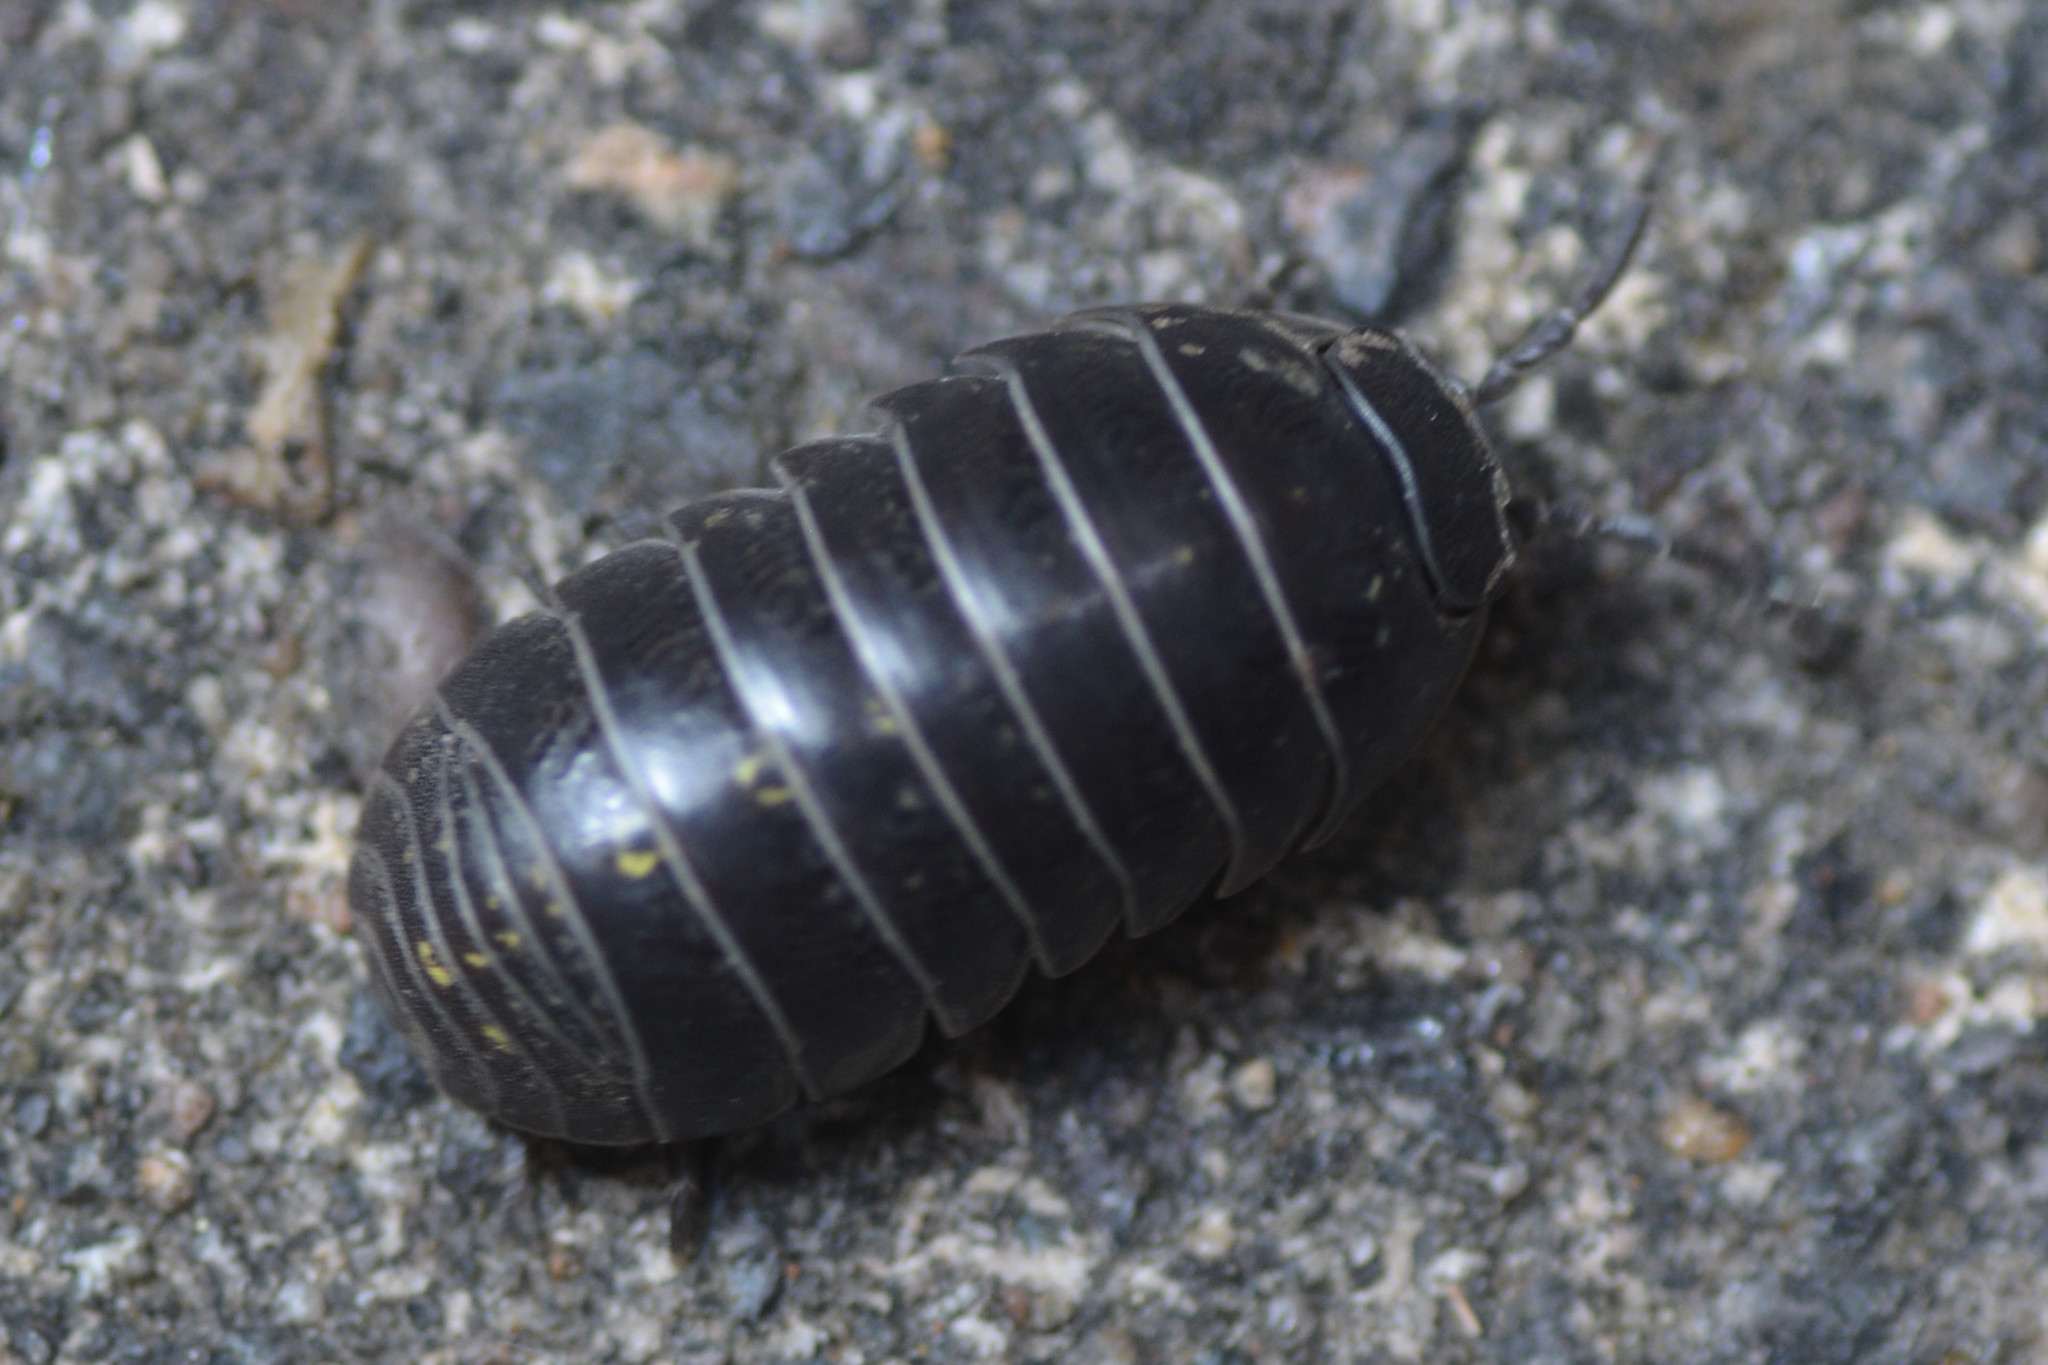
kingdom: Animalia
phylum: Arthropoda
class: Malacostraca
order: Isopoda
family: Armadillidiidae
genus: Armadillidium
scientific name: Armadillidium vulgare
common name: Common pill woodlouse
